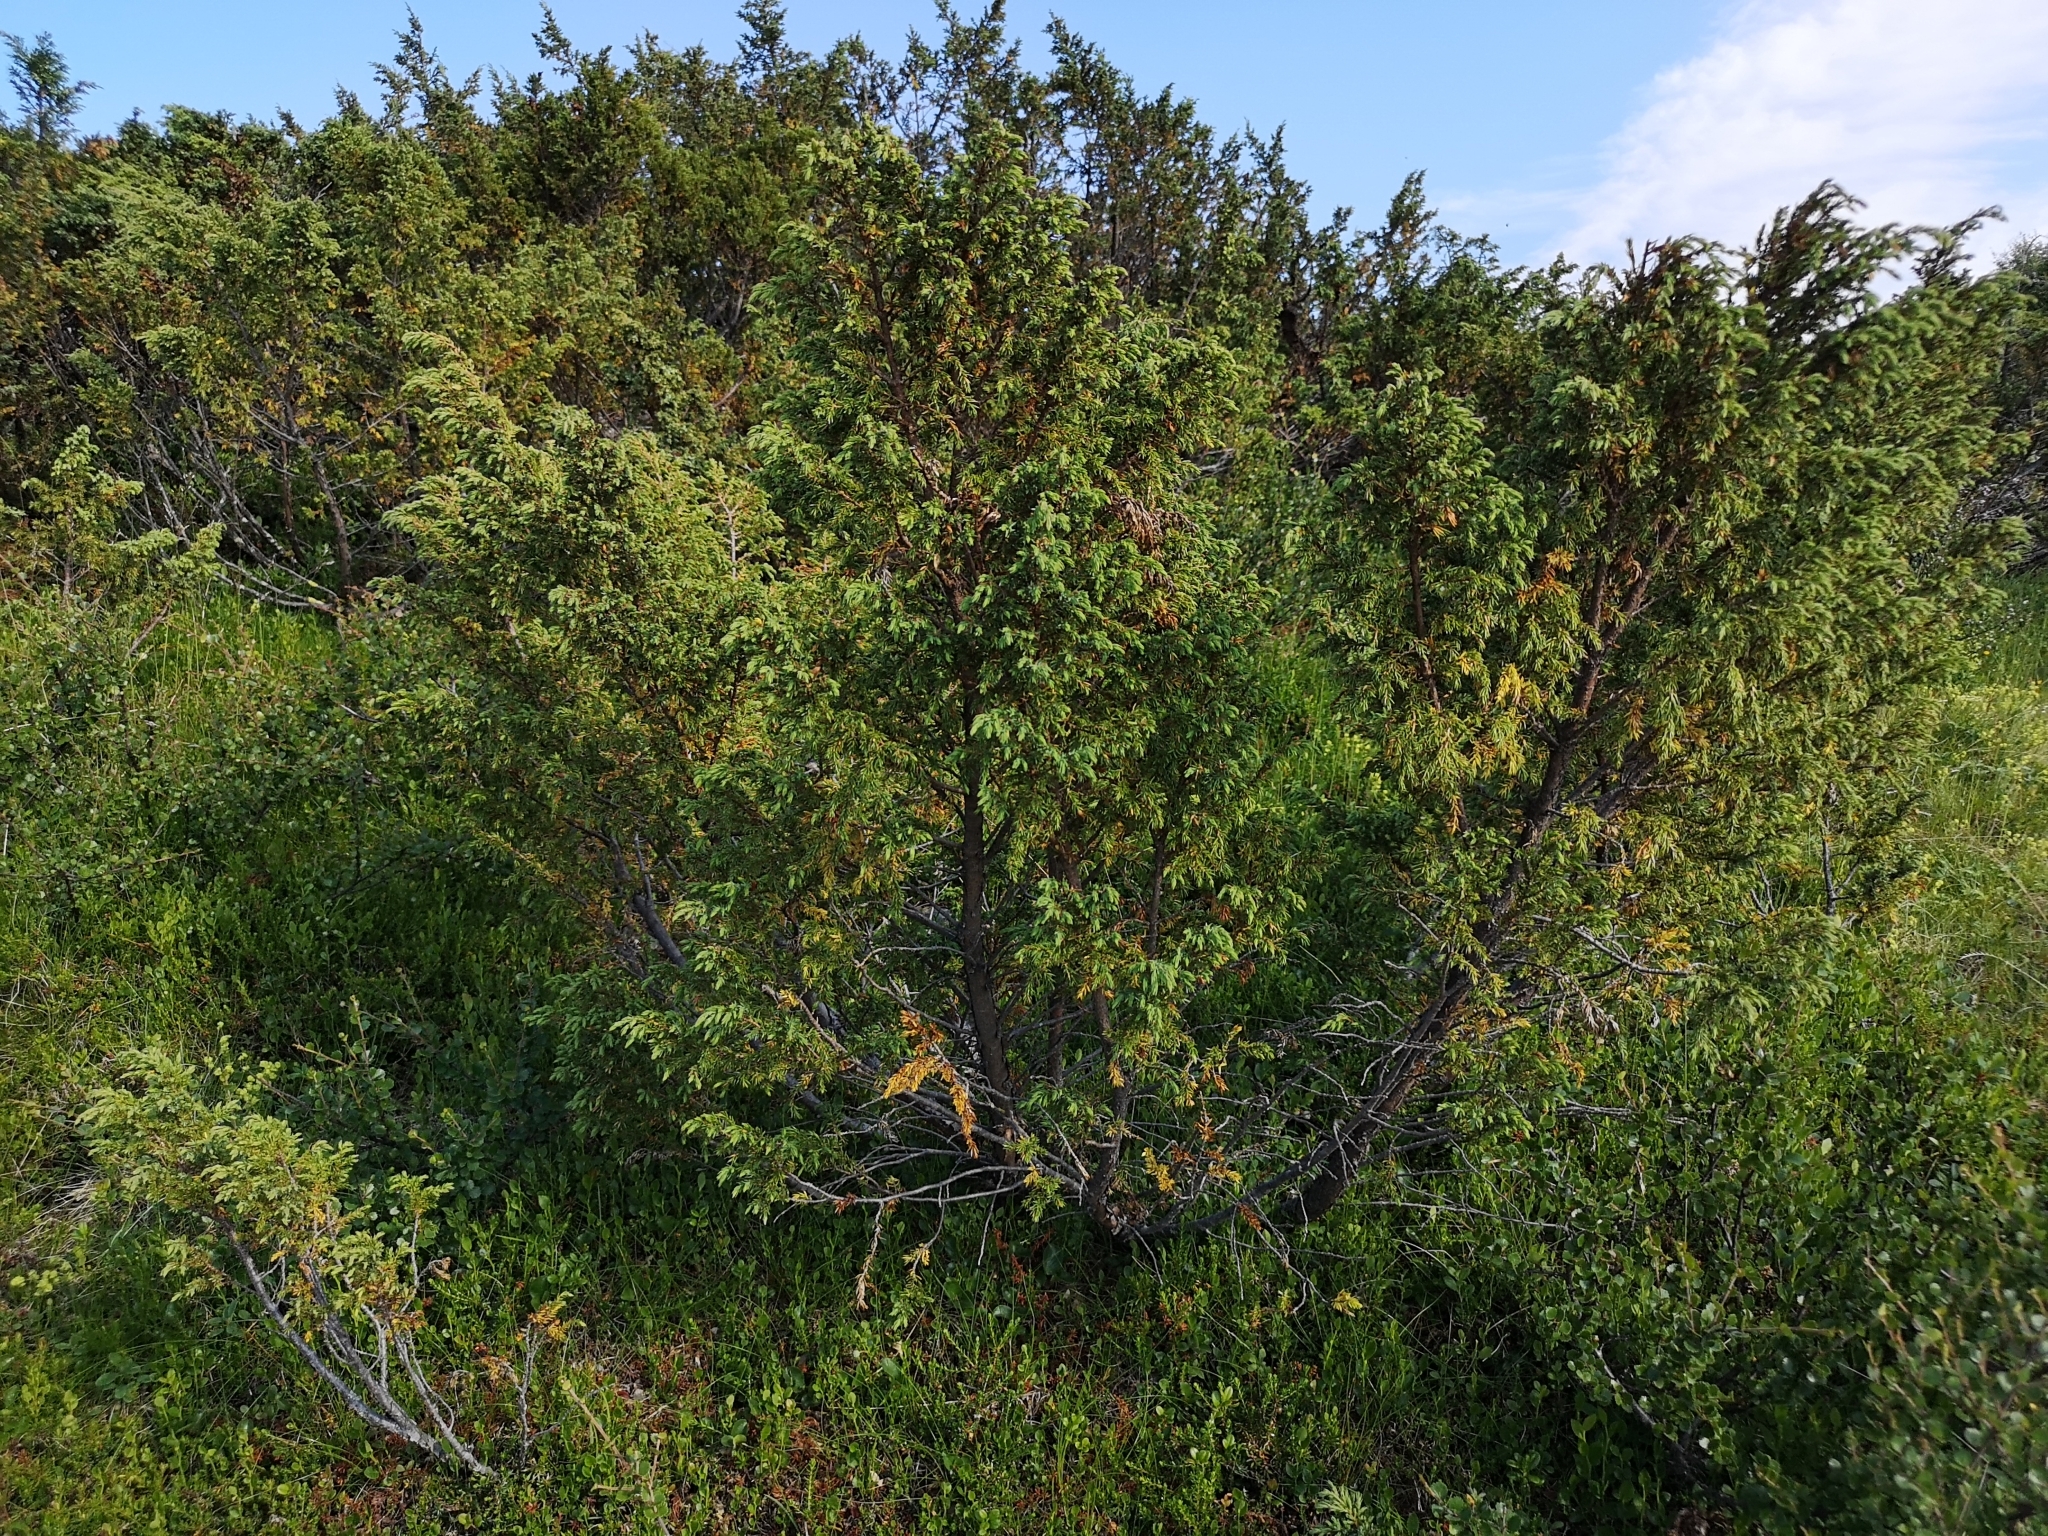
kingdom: Plantae
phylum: Tracheophyta
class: Pinopsida
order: Pinales
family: Cupressaceae
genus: Juniperus
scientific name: Juniperus communis
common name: Common juniper
